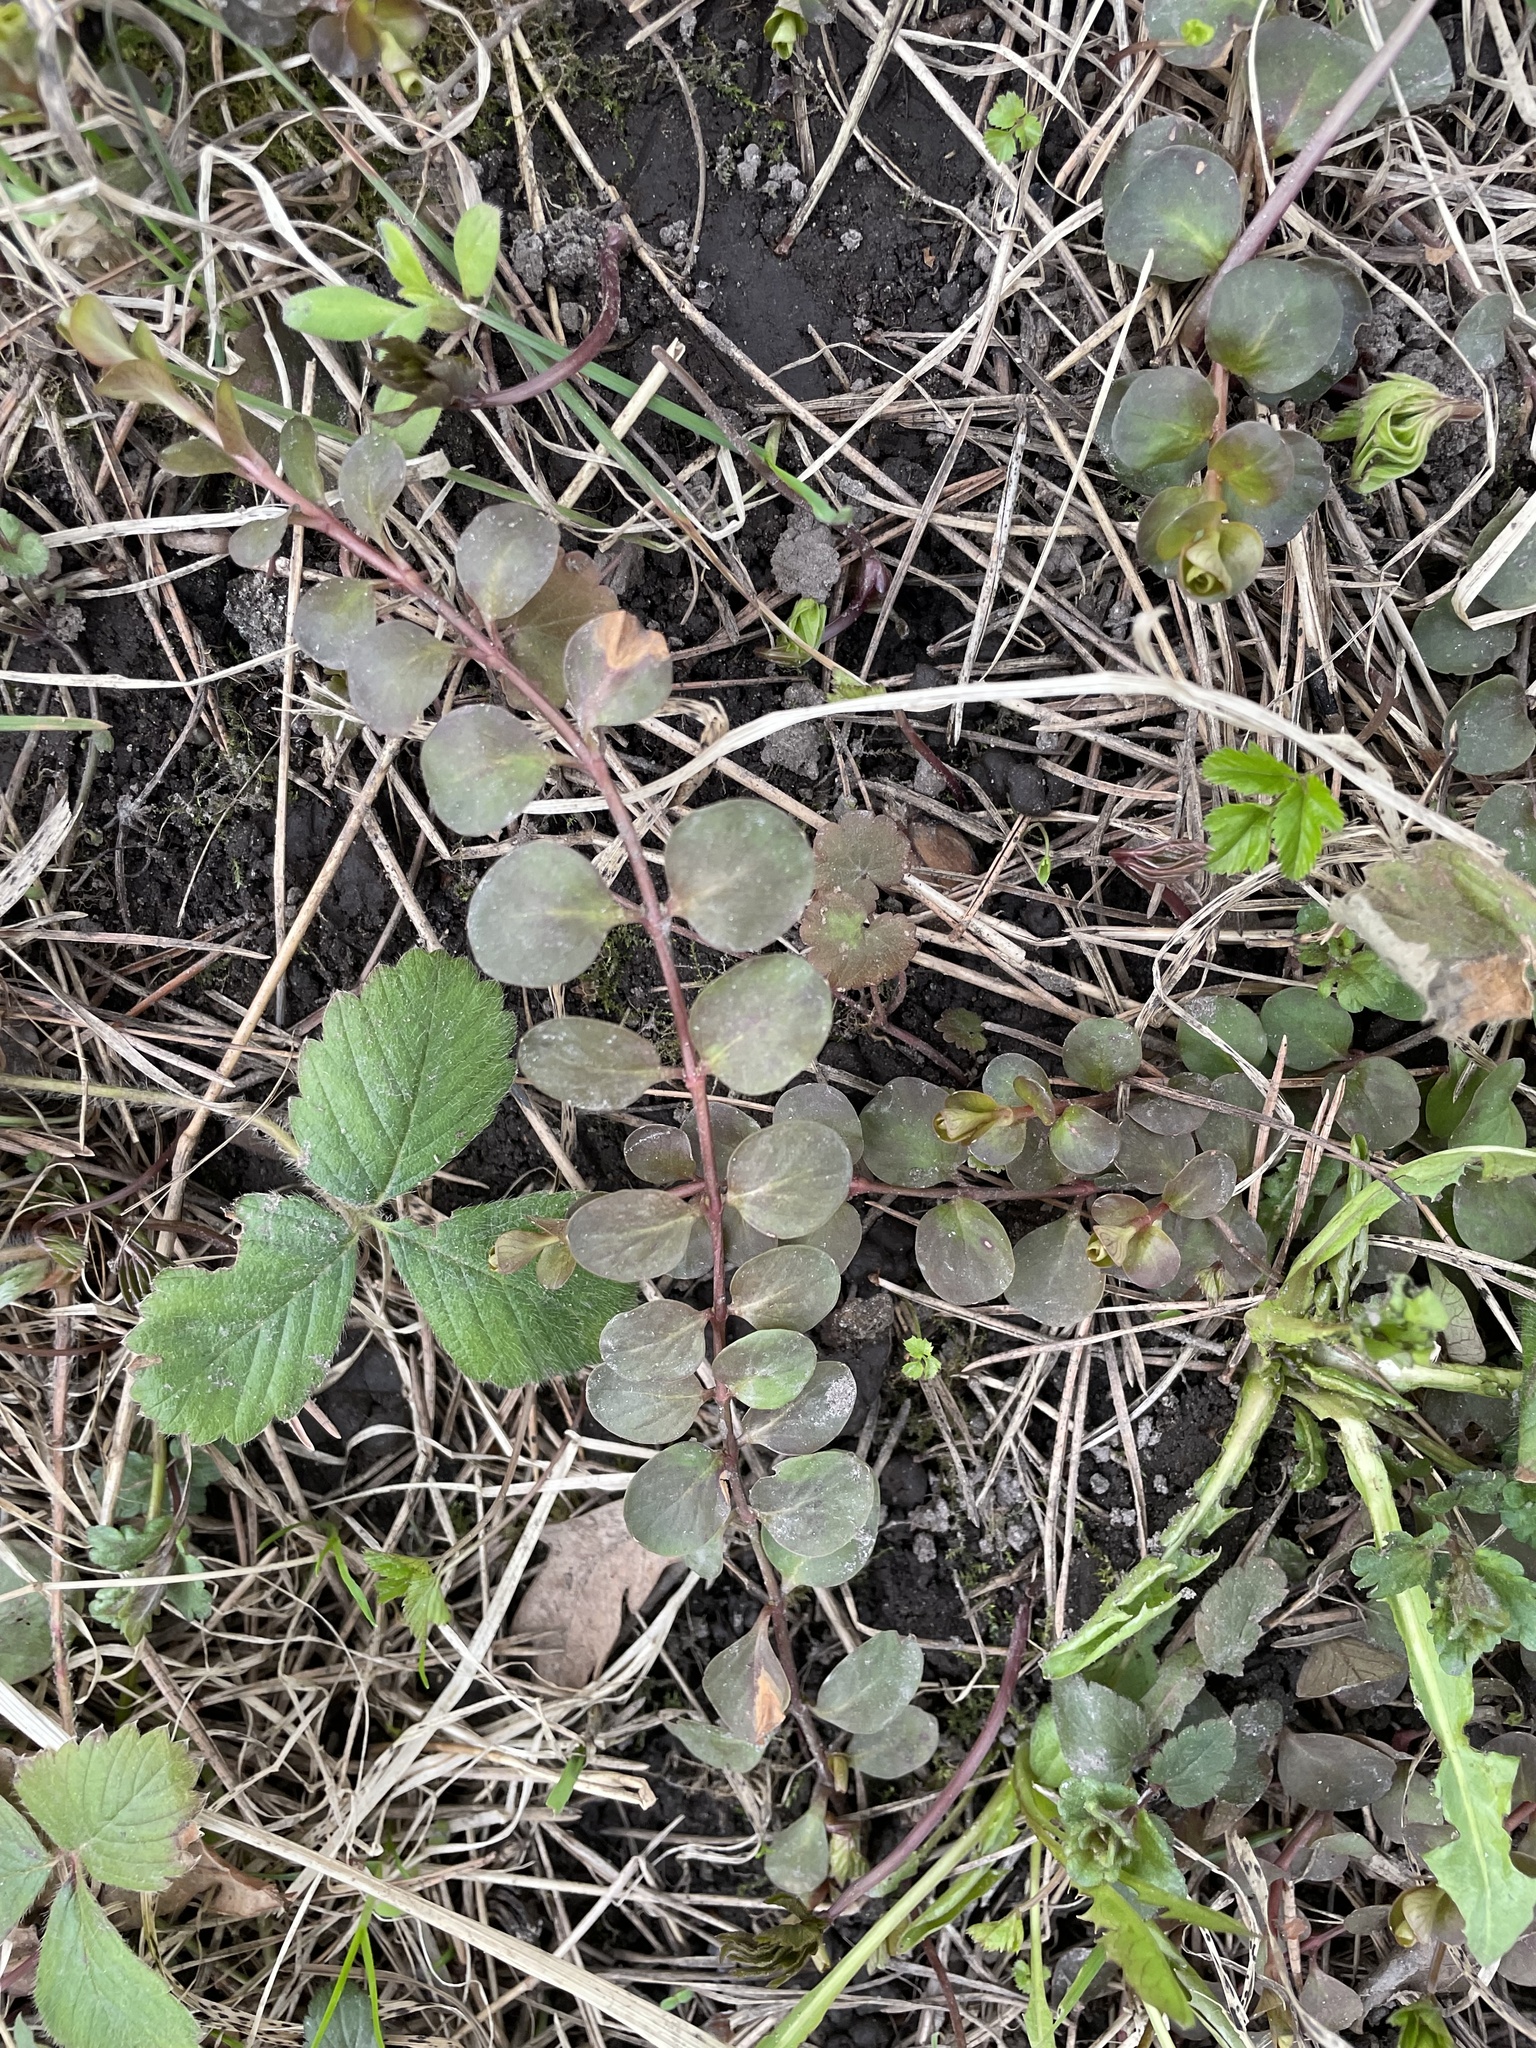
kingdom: Plantae
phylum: Tracheophyta
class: Magnoliopsida
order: Ericales
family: Primulaceae
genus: Lysimachia
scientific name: Lysimachia nummularia
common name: Moneywort
